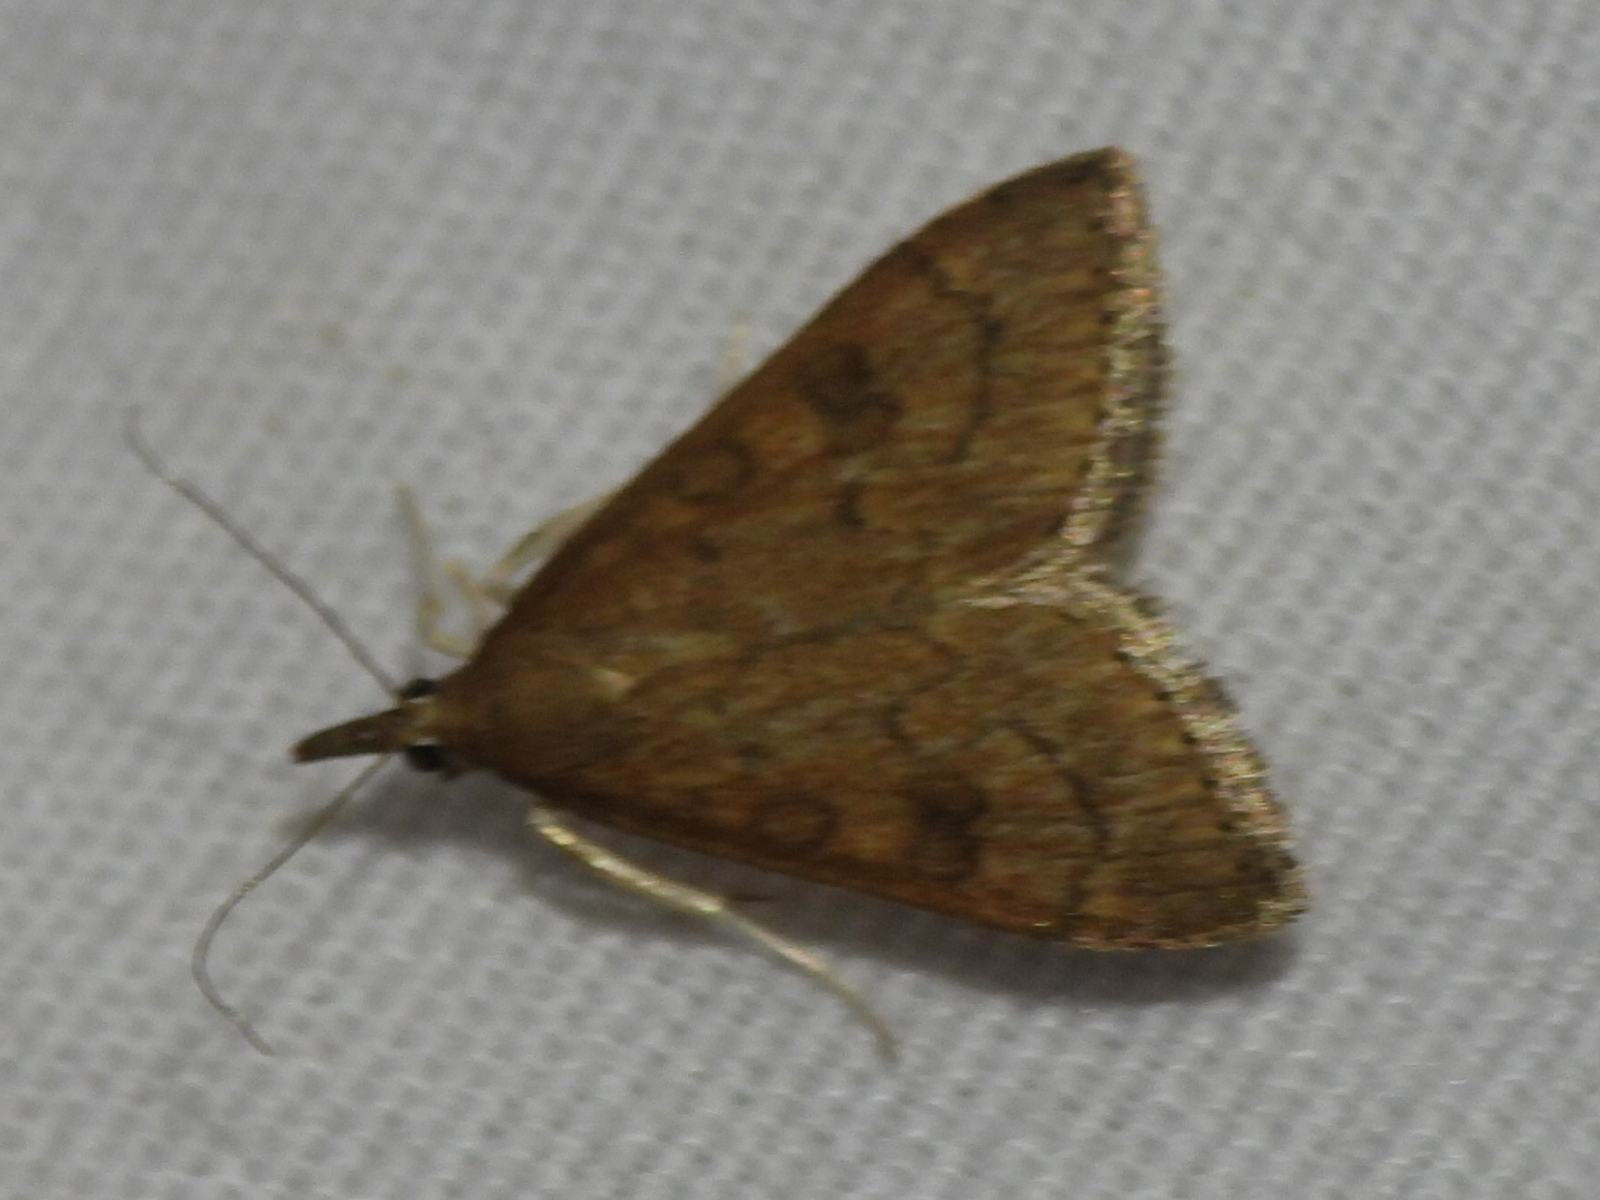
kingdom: Animalia
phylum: Arthropoda
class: Insecta
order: Lepidoptera
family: Crambidae
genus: Udea
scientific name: Udea rubigalis
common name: Celery leaftier moth
